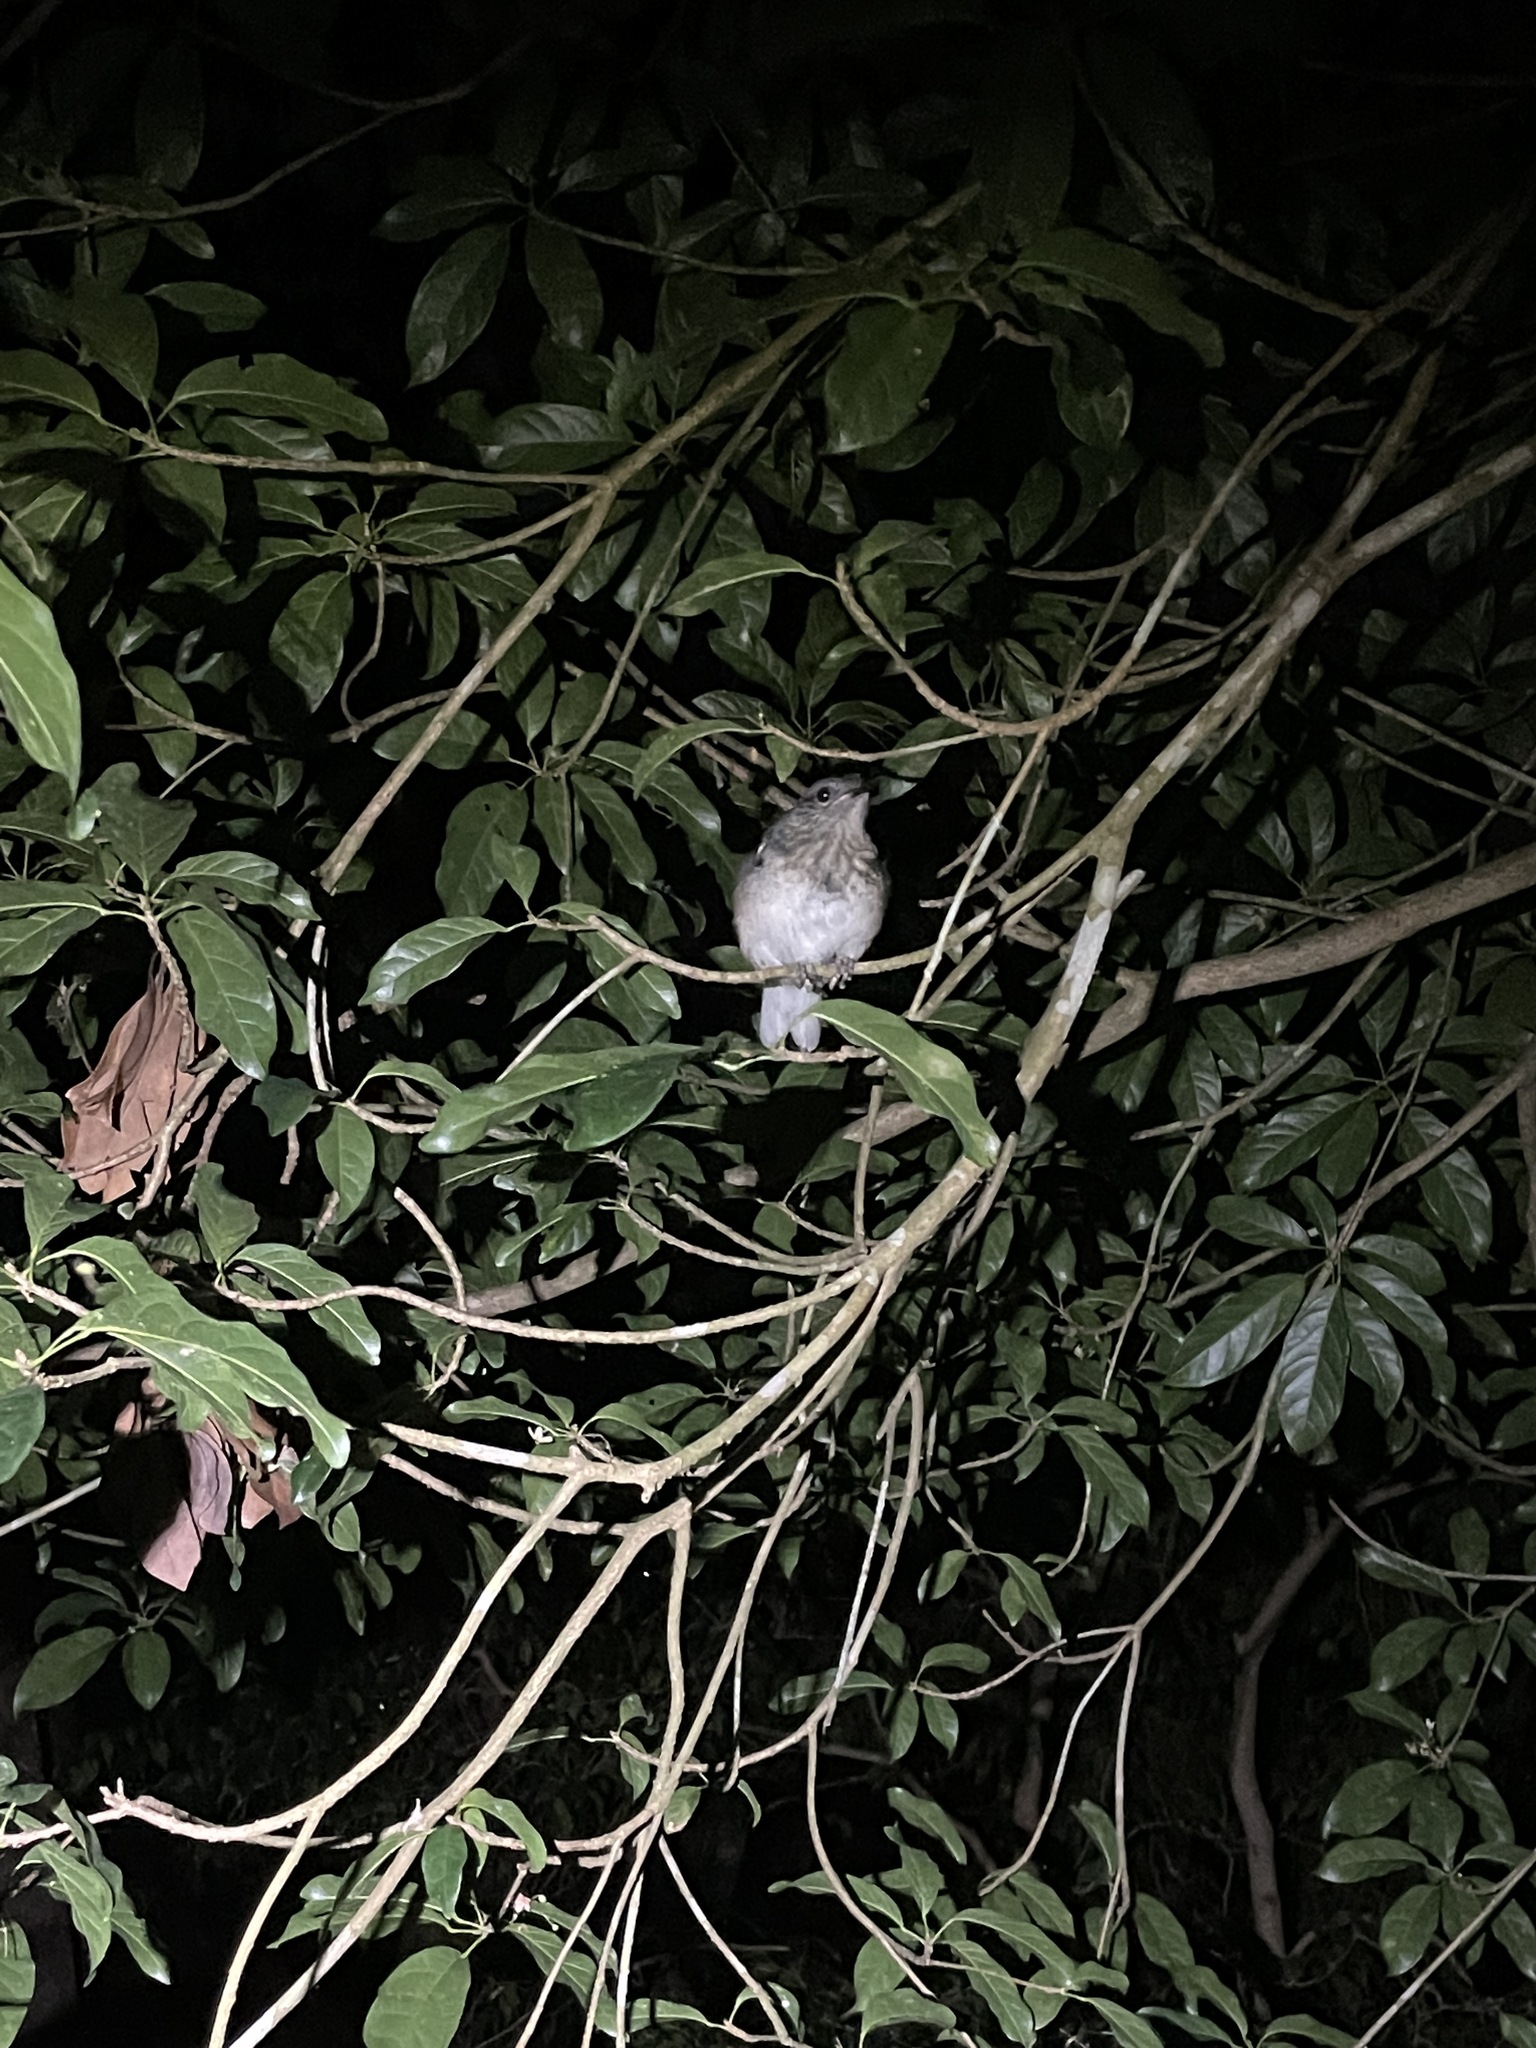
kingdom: Animalia
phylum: Chordata
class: Aves
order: Passeriformes
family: Muscicapidae
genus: Copsychus
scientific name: Copsychus saularis
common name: Oriental magpie-robin
